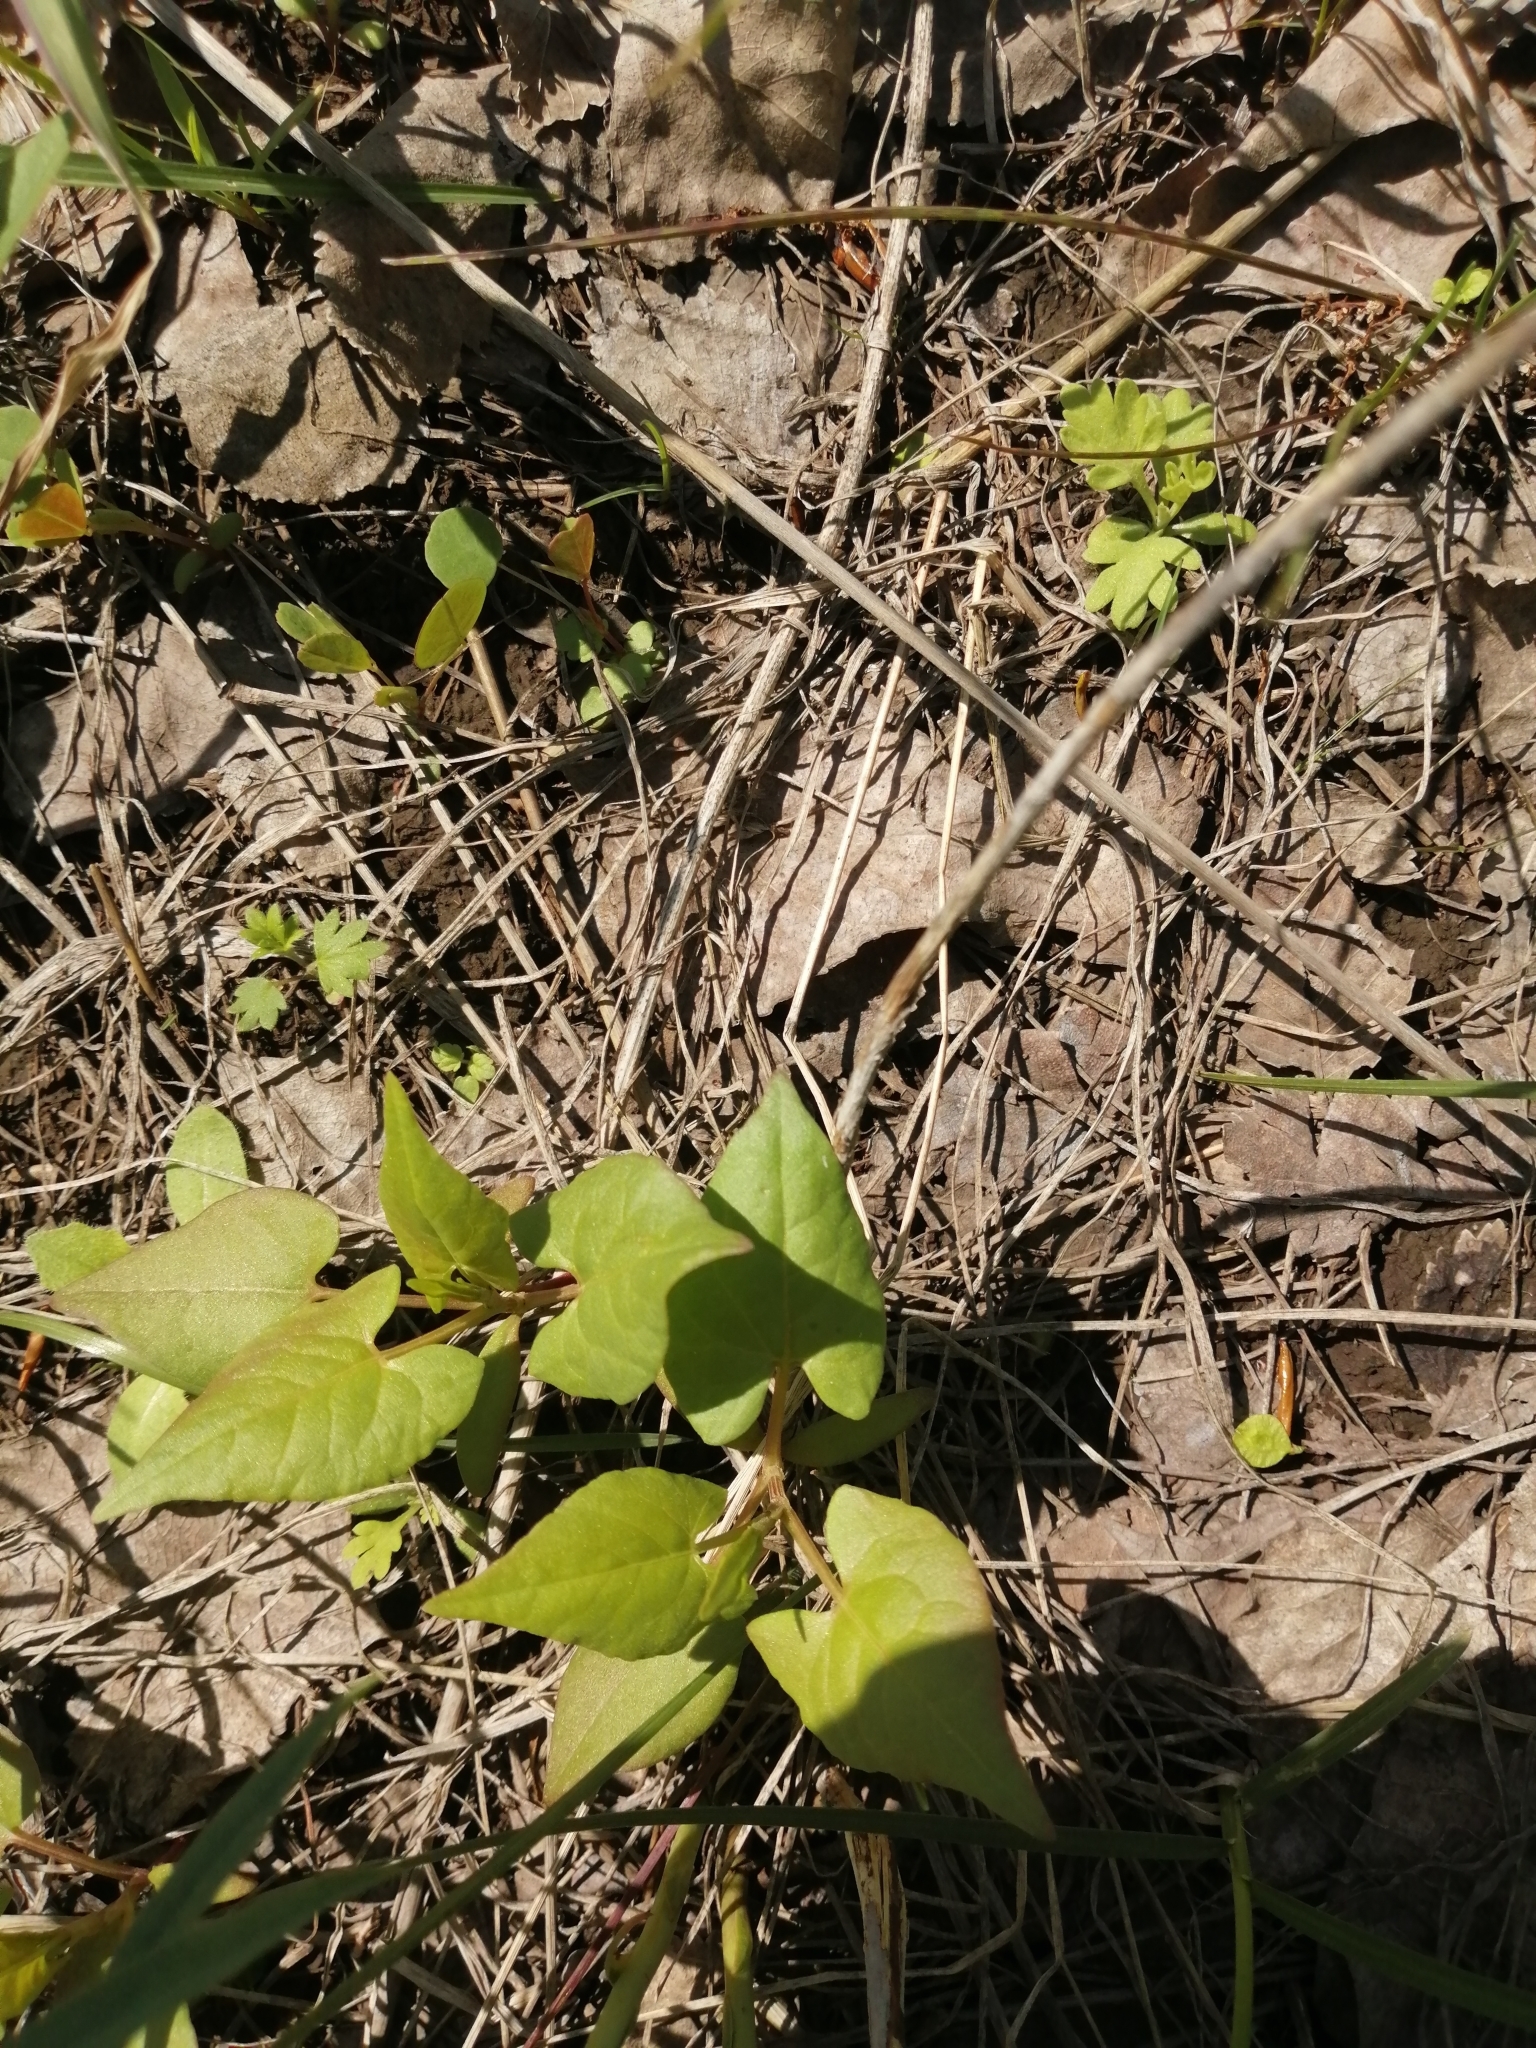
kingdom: Plantae
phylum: Tracheophyta
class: Magnoliopsida
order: Caryophyllales
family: Polygonaceae
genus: Fallopia
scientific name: Fallopia convolvulus
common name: Black bindweed
